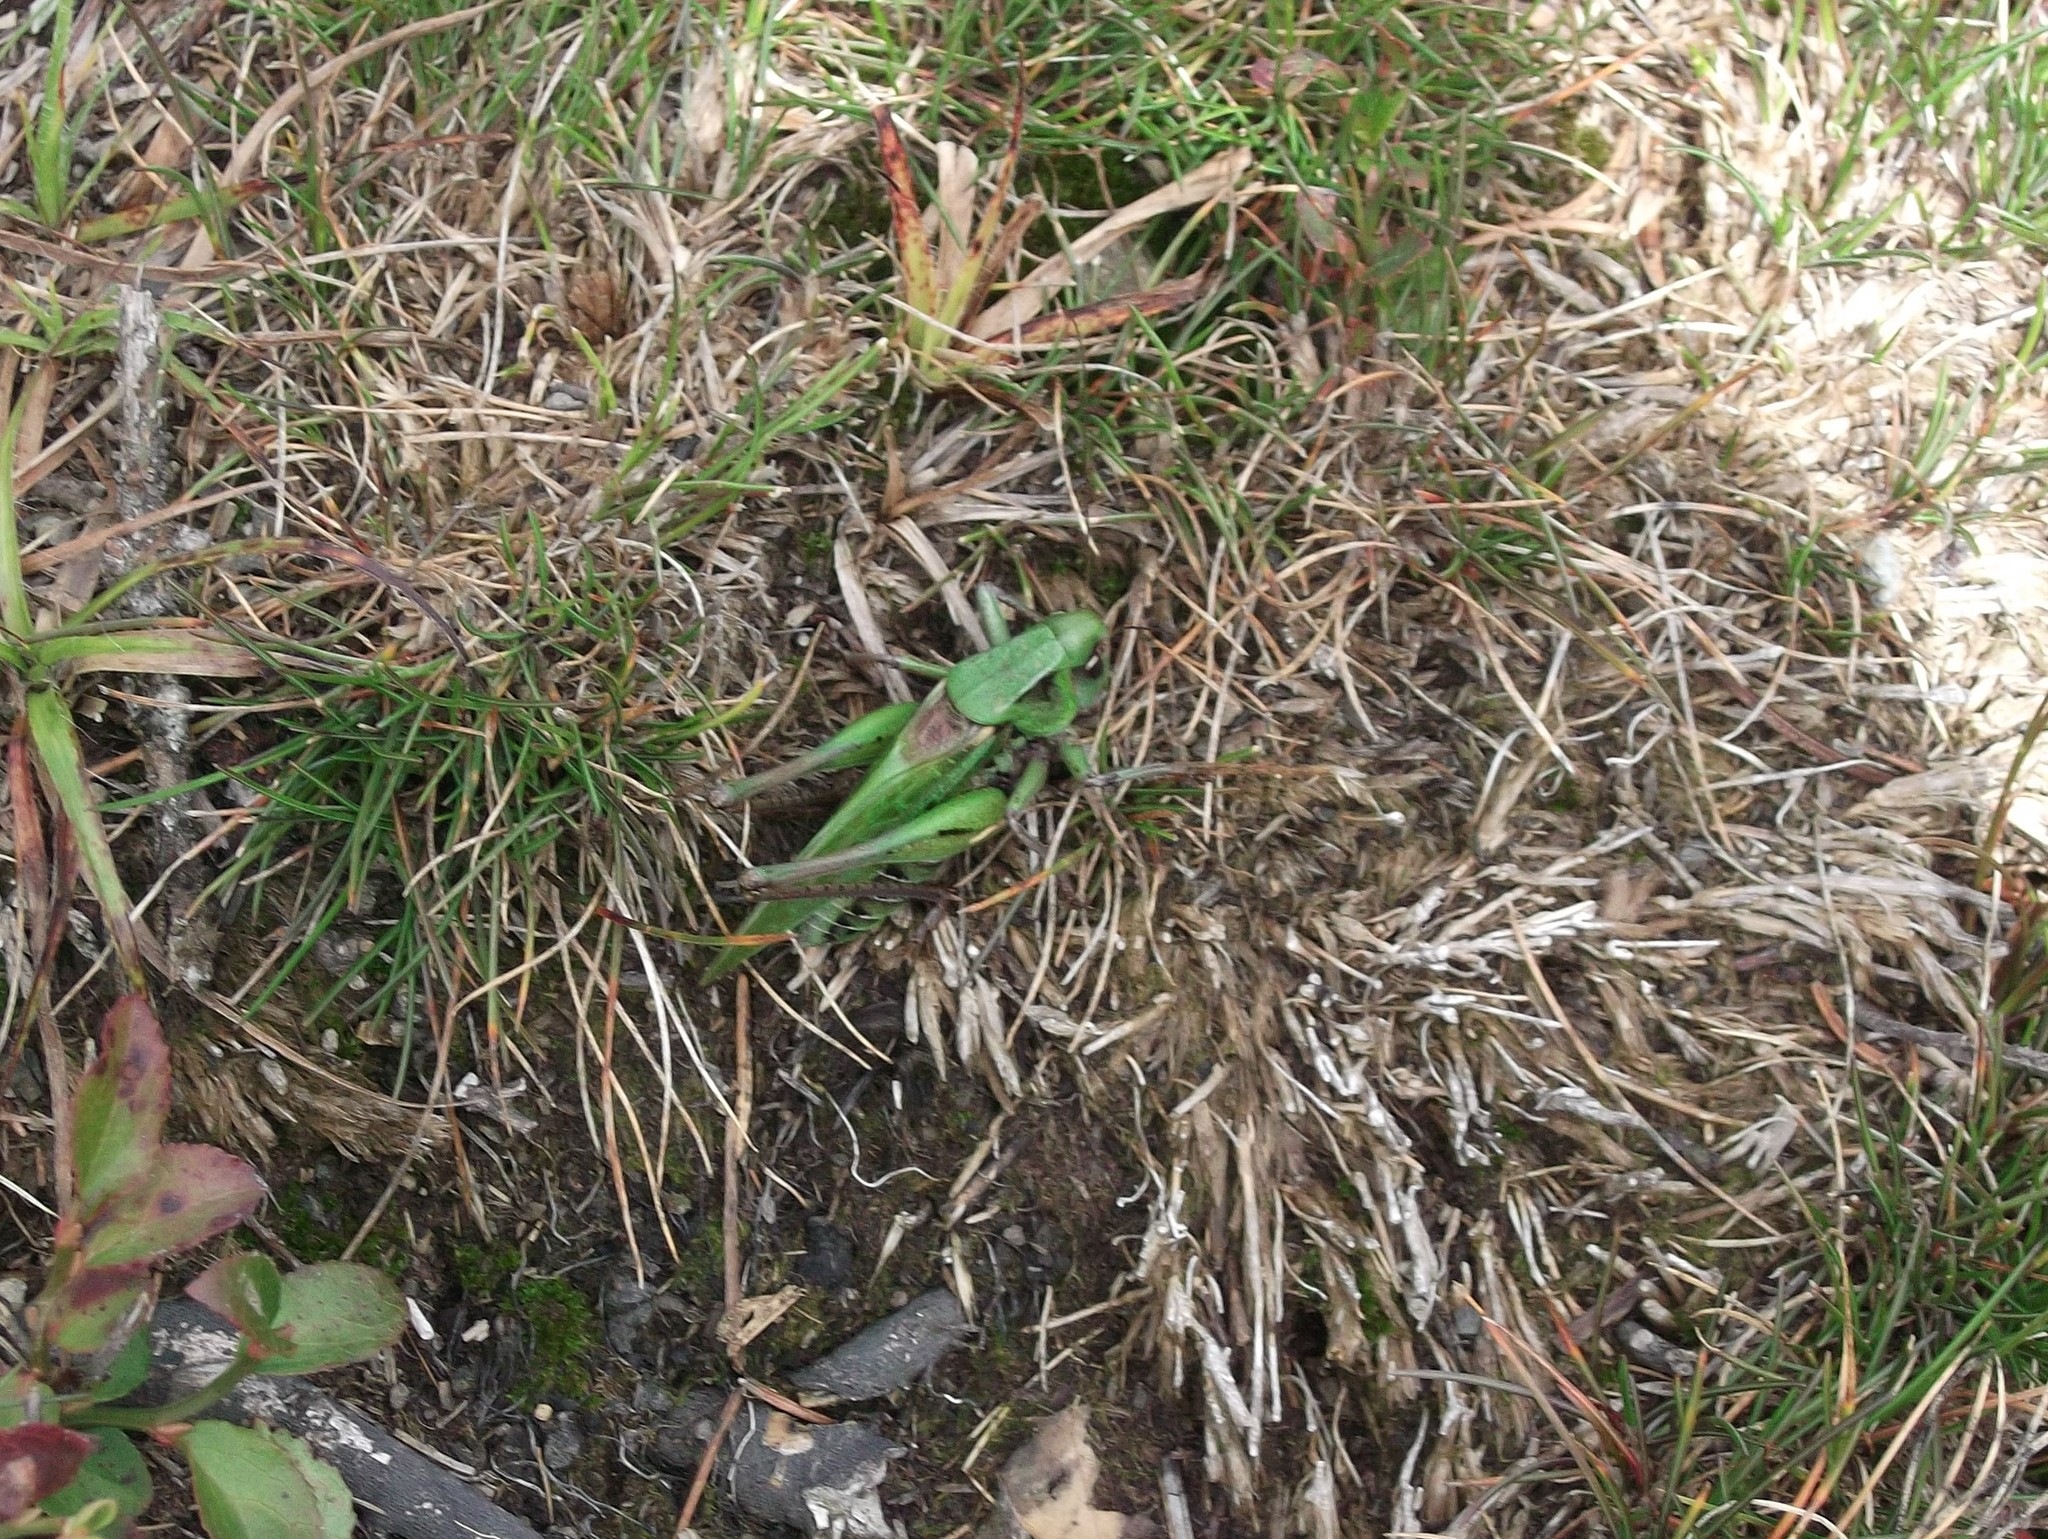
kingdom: Animalia
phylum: Arthropoda
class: Insecta
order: Orthoptera
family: Tettigoniidae
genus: Decticus
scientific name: Decticus verrucivorus
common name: Wart-biter
